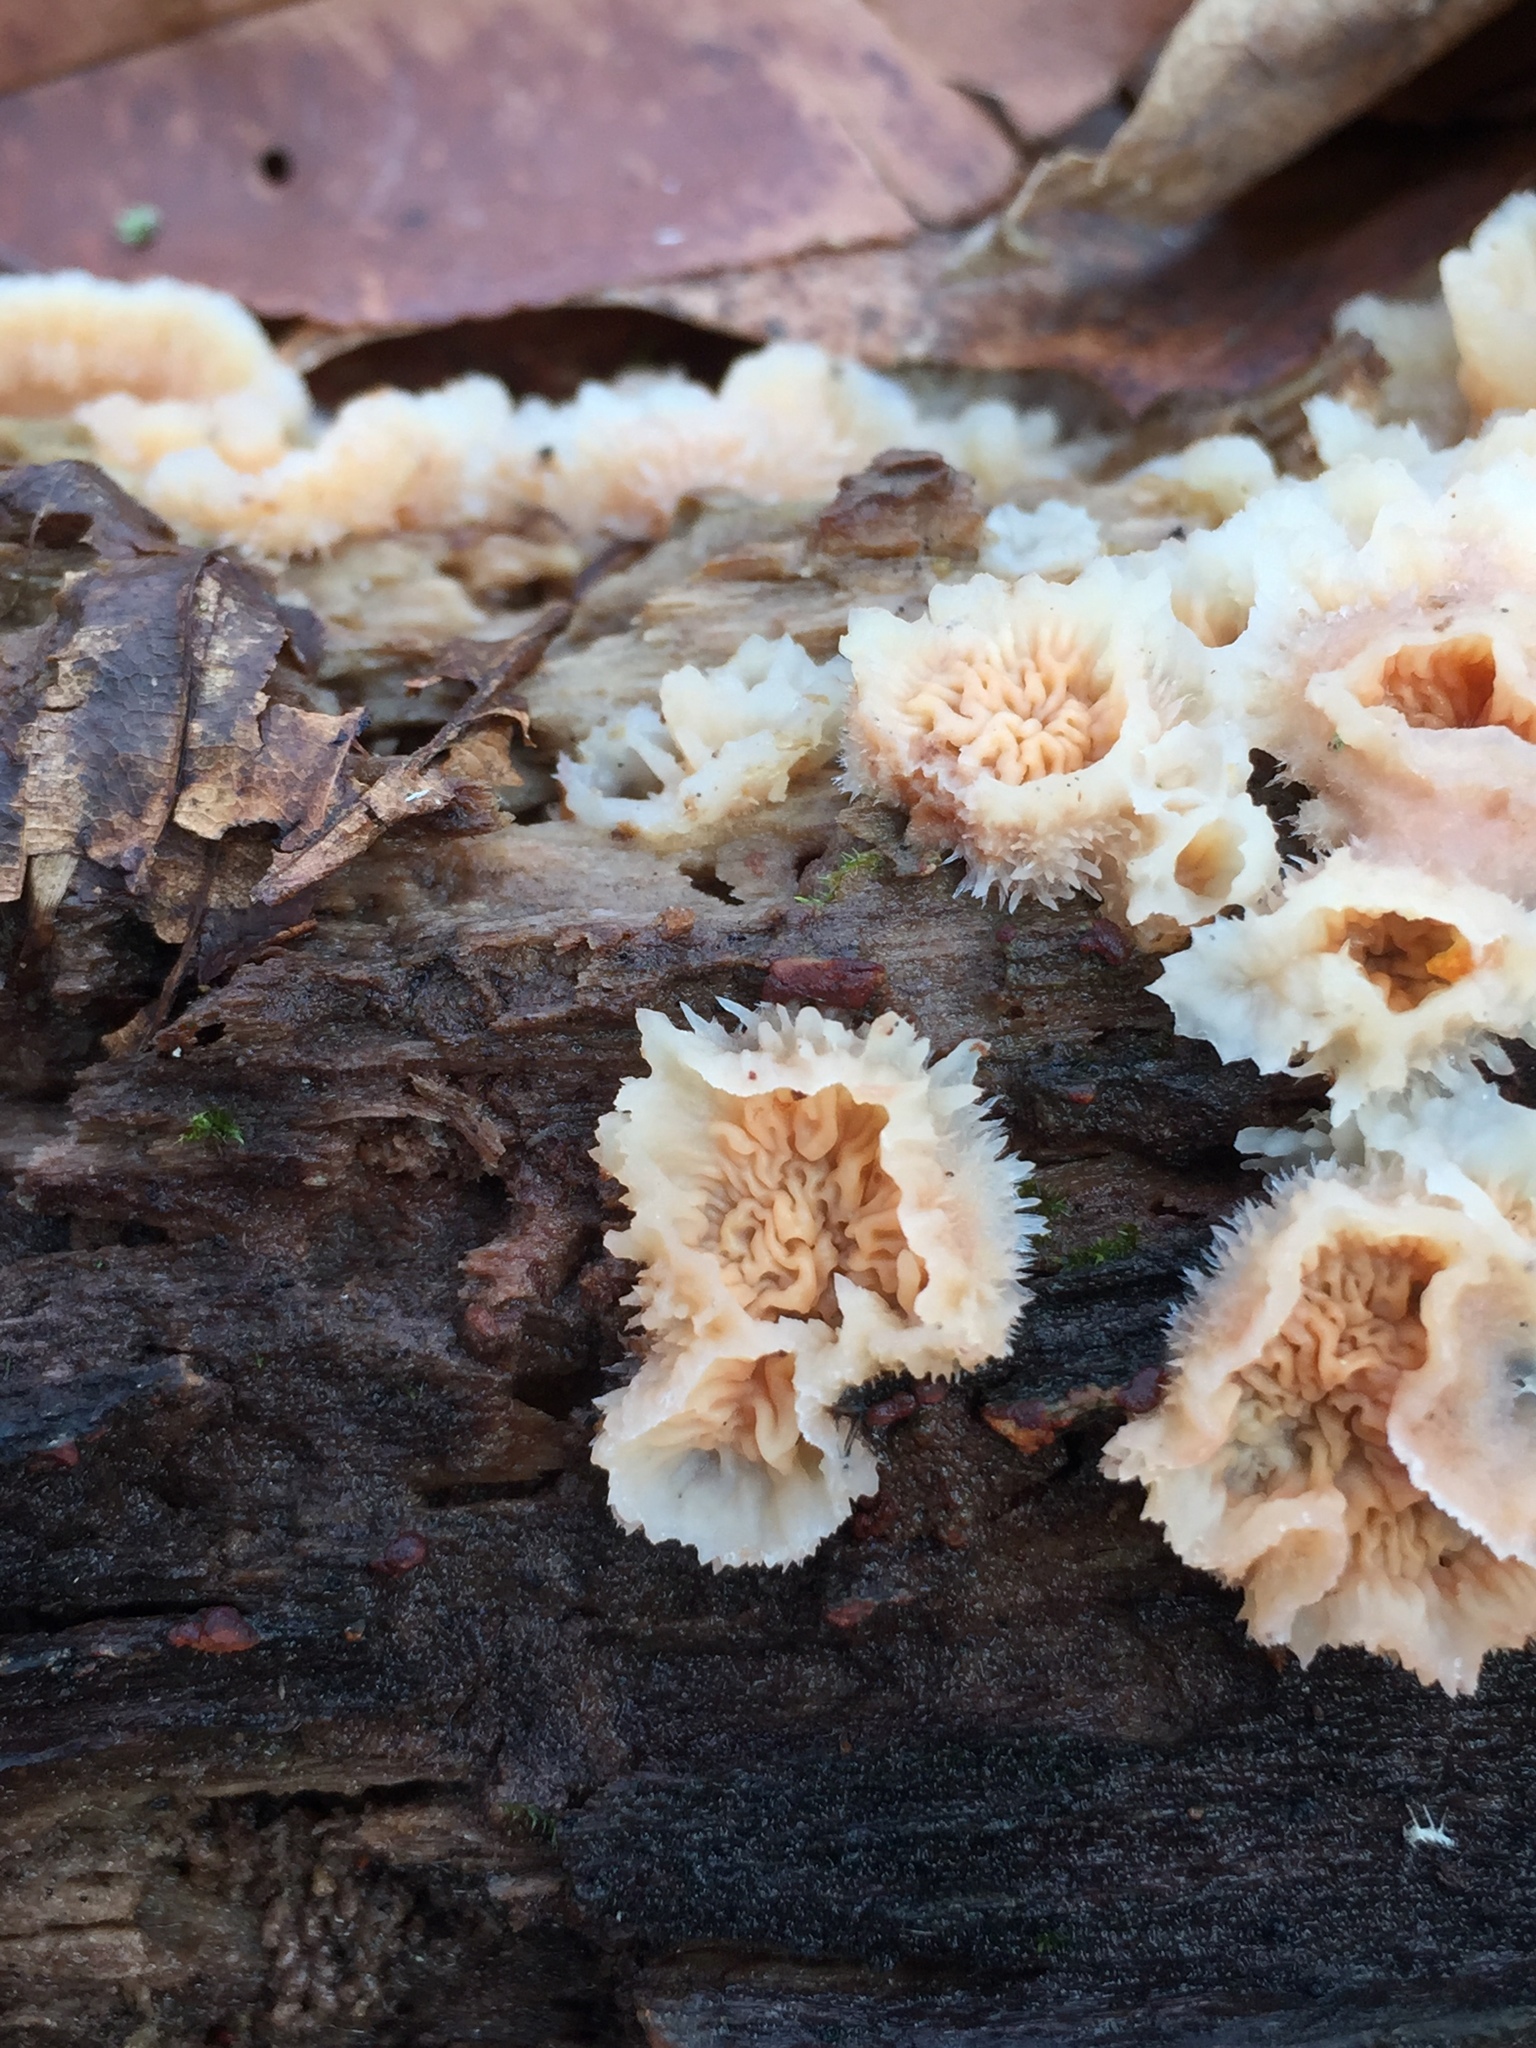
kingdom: Fungi
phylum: Basidiomycota
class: Agaricomycetes
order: Polyporales
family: Meruliaceae
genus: Phlebia
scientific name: Phlebia tremellosa
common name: Jelly rot
